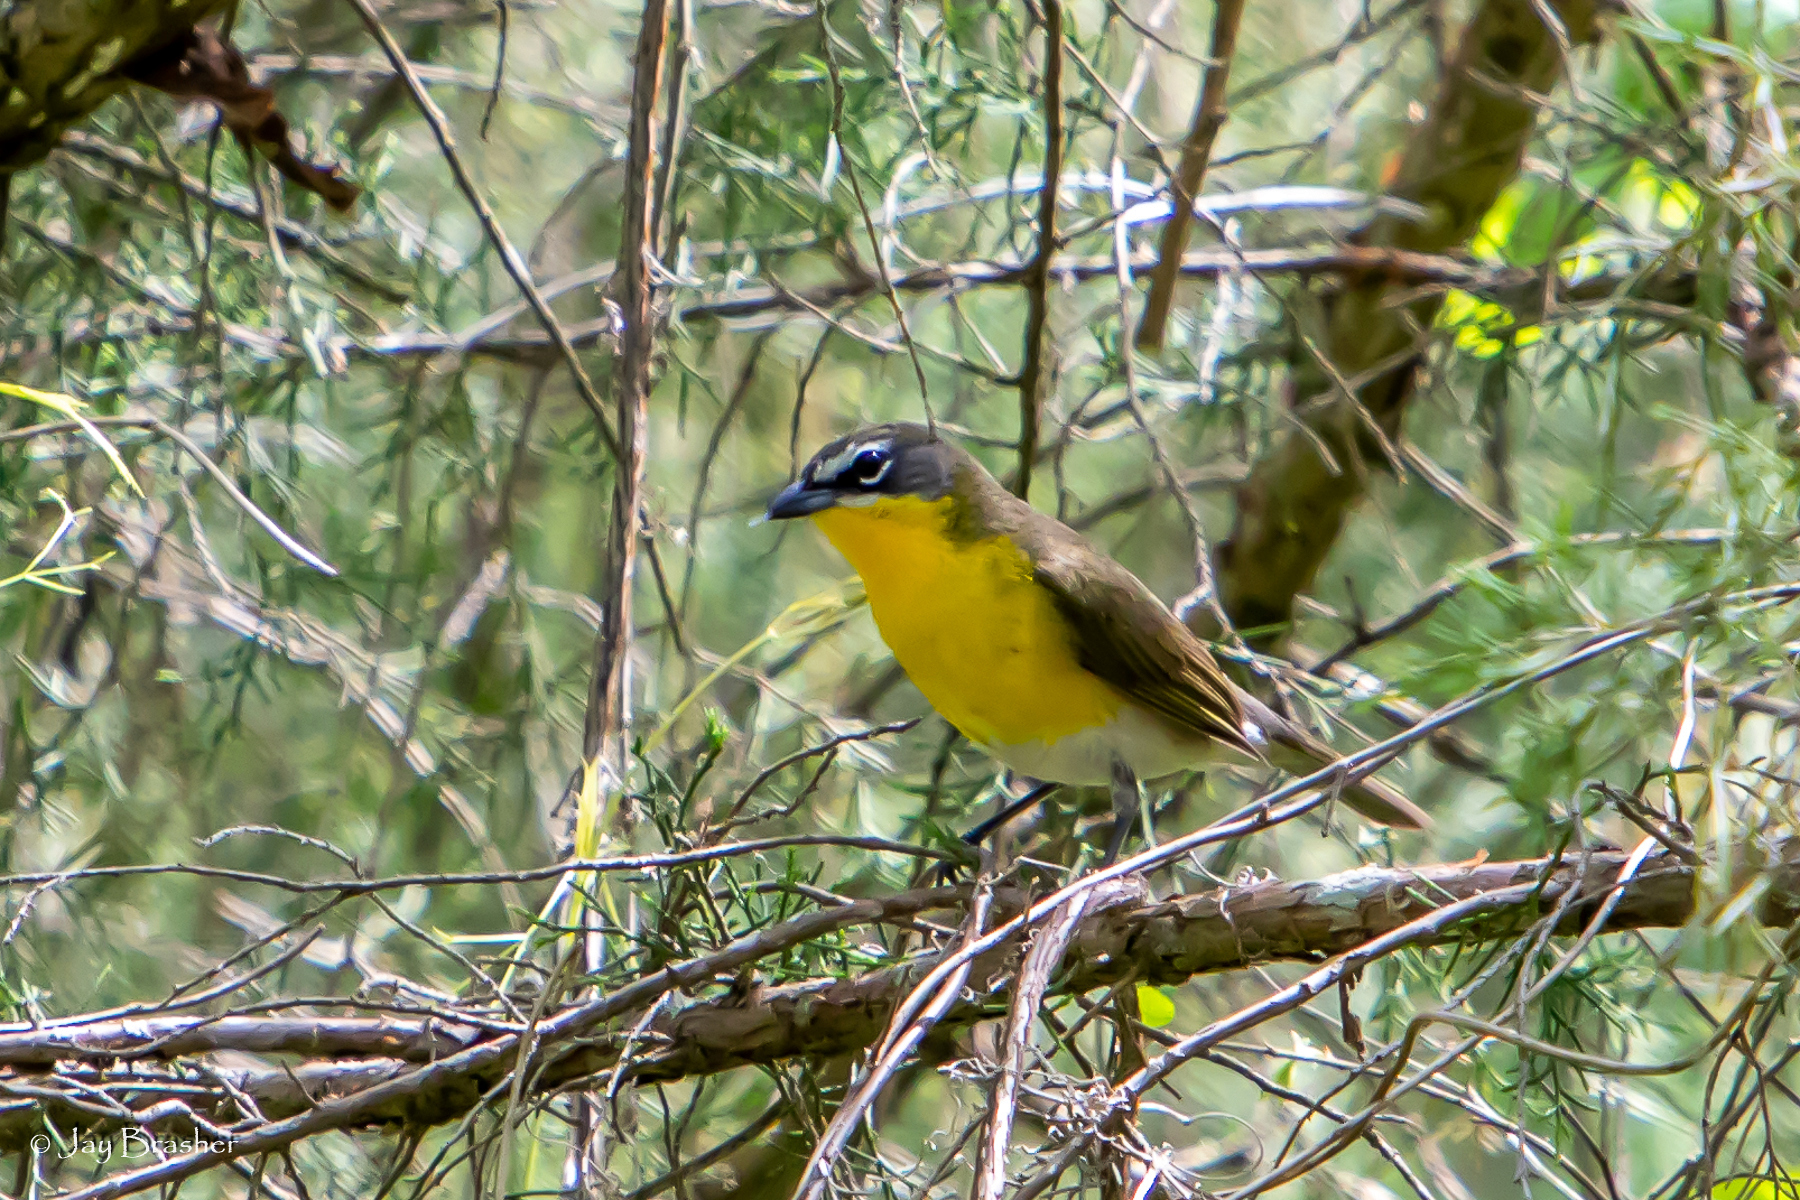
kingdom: Animalia
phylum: Chordata
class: Aves
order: Passeriformes
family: Parulidae
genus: Icteria
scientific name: Icteria virens
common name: Yellow-breasted chat
